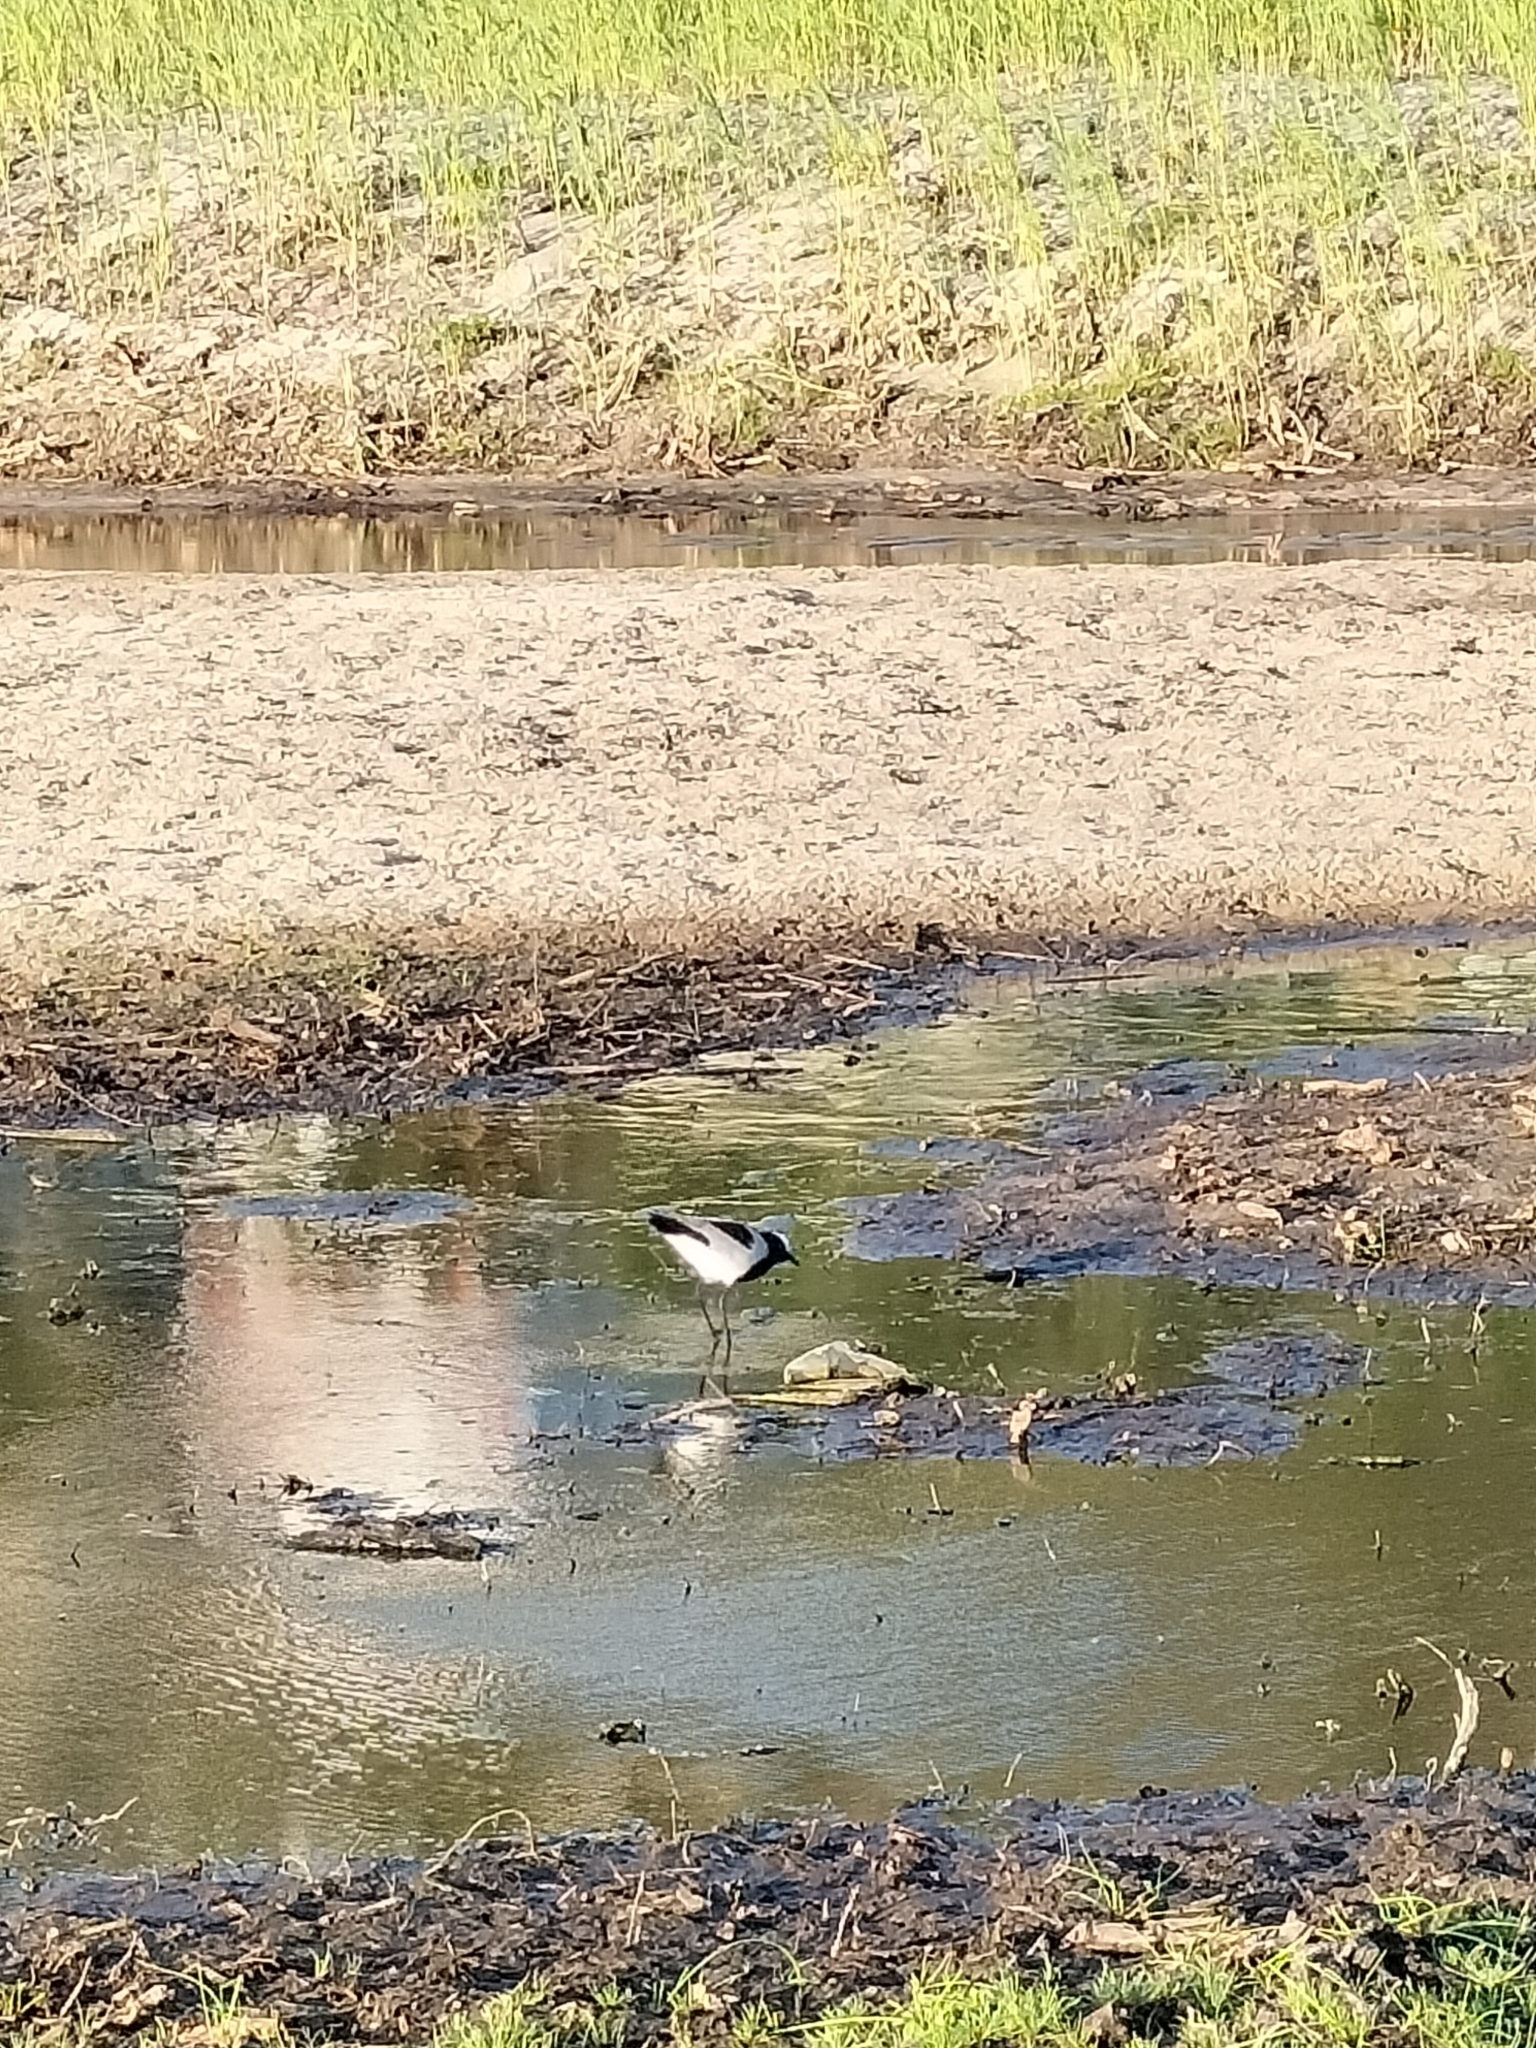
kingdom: Animalia
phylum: Chordata
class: Aves
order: Charadriiformes
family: Charadriidae
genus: Vanellus
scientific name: Vanellus armatus
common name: Blacksmith lapwing
